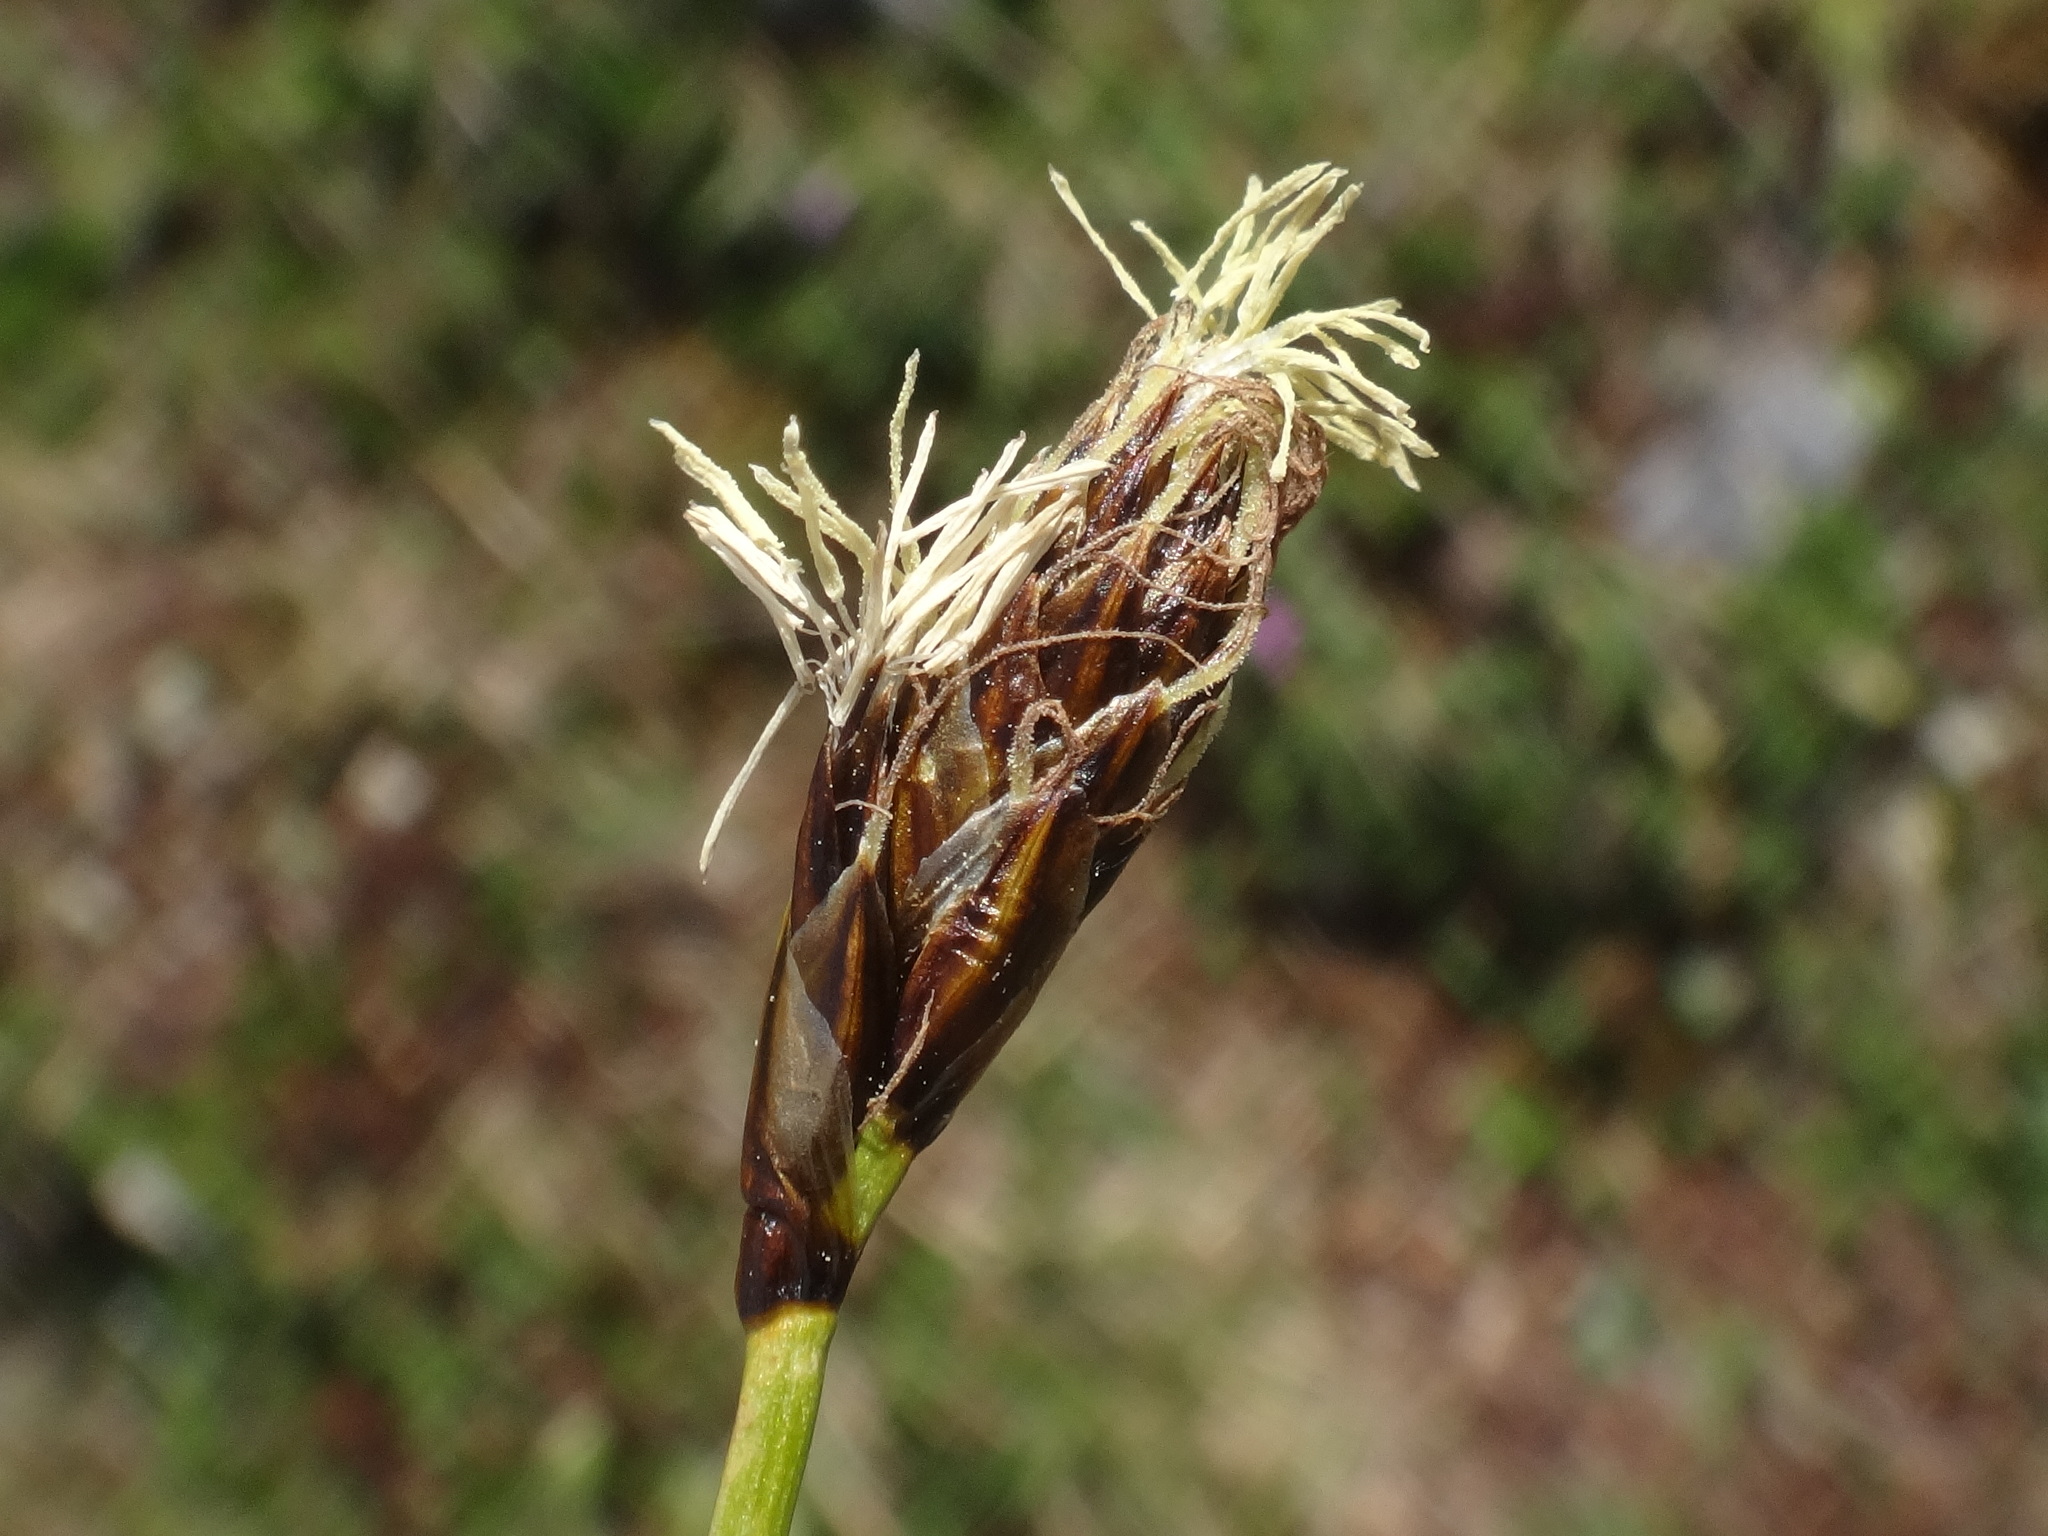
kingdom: Plantae
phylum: Tracheophyta
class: Liliopsida
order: Poales
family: Cyperaceae
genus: Carex
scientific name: Carex curvula
